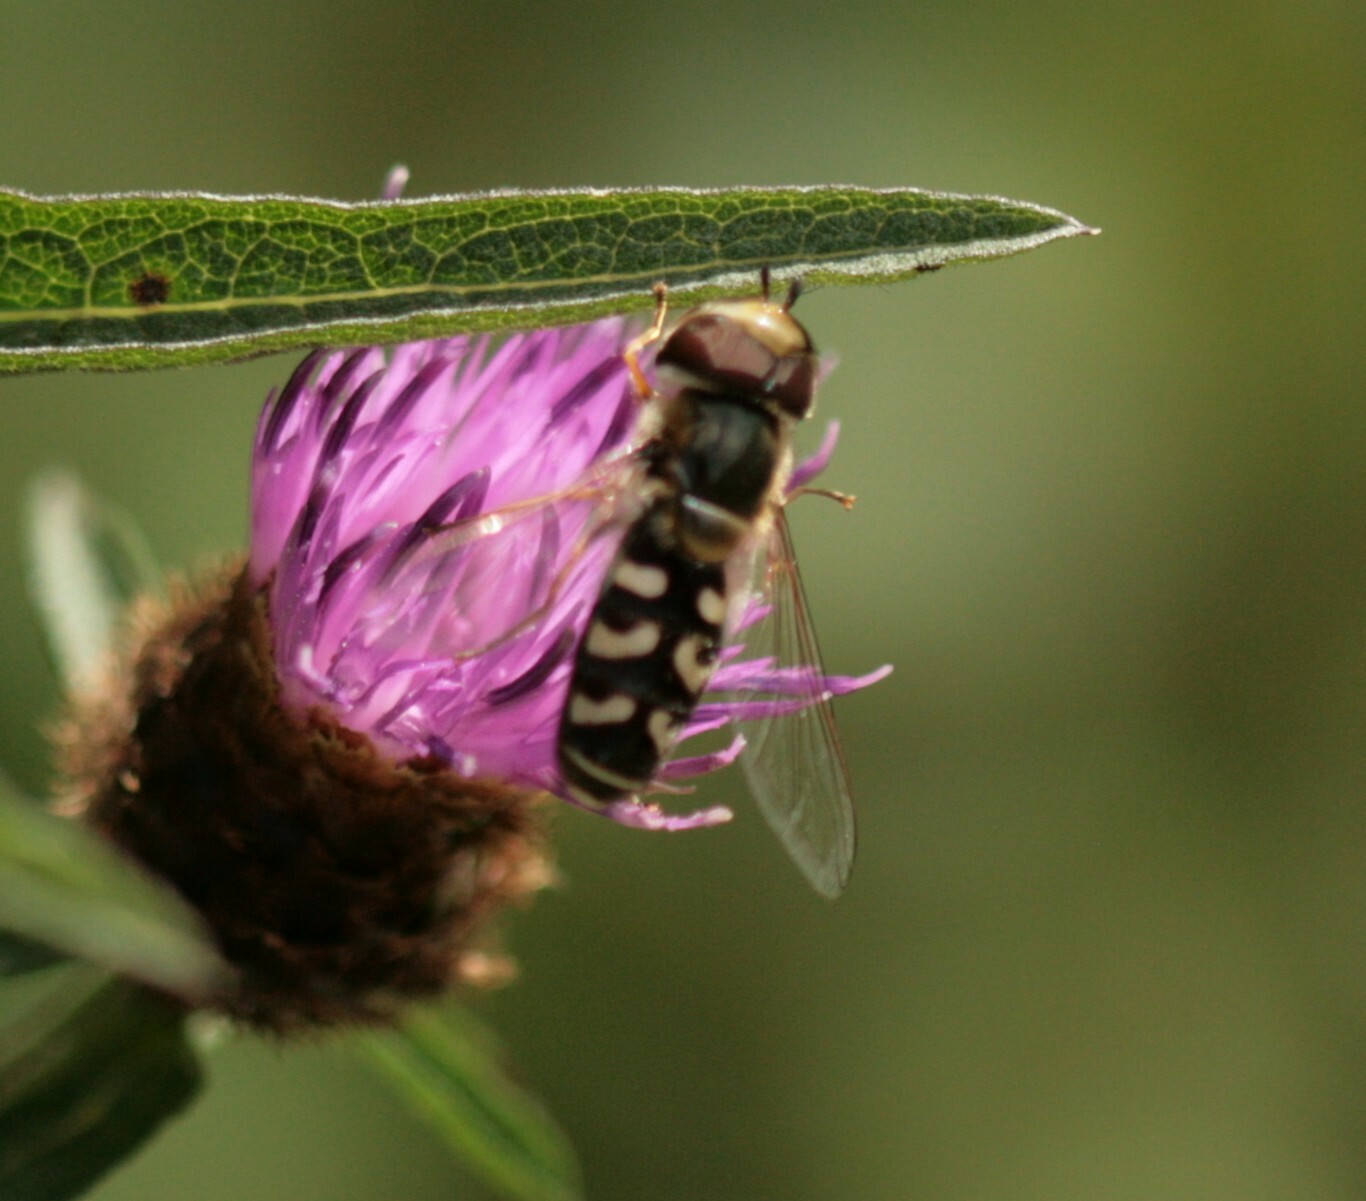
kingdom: Animalia
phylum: Arthropoda
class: Insecta
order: Diptera
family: Syrphidae
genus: Scaeva
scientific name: Scaeva pyrastri
